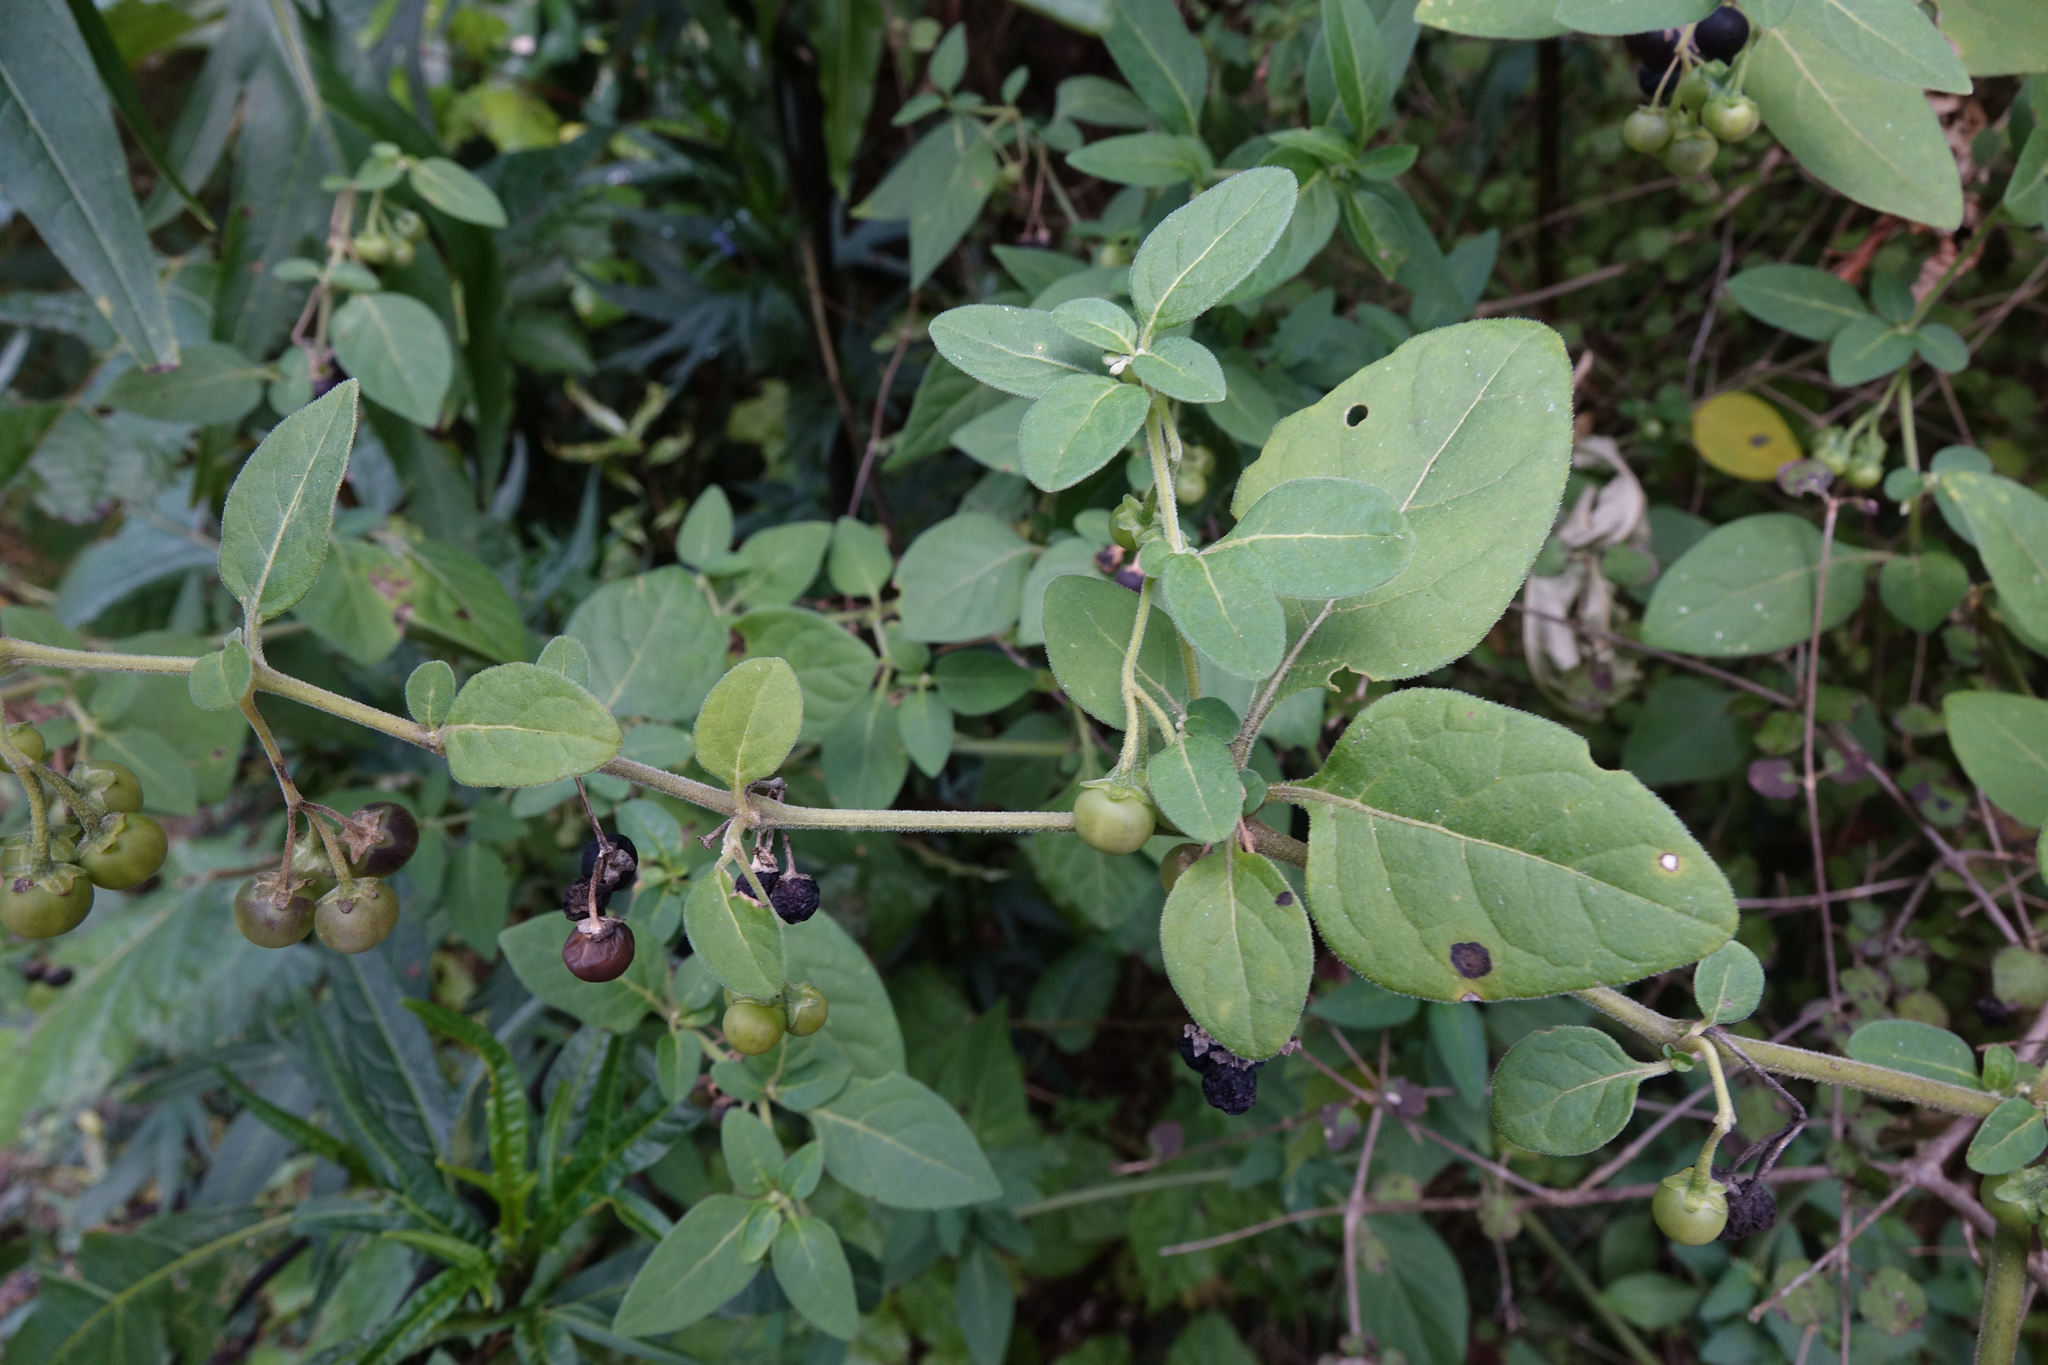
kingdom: Plantae
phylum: Tracheophyta
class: Magnoliopsida
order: Solanales
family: Solanaceae
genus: Solanum
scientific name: Solanum chenopodioides
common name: Tall nightshade
